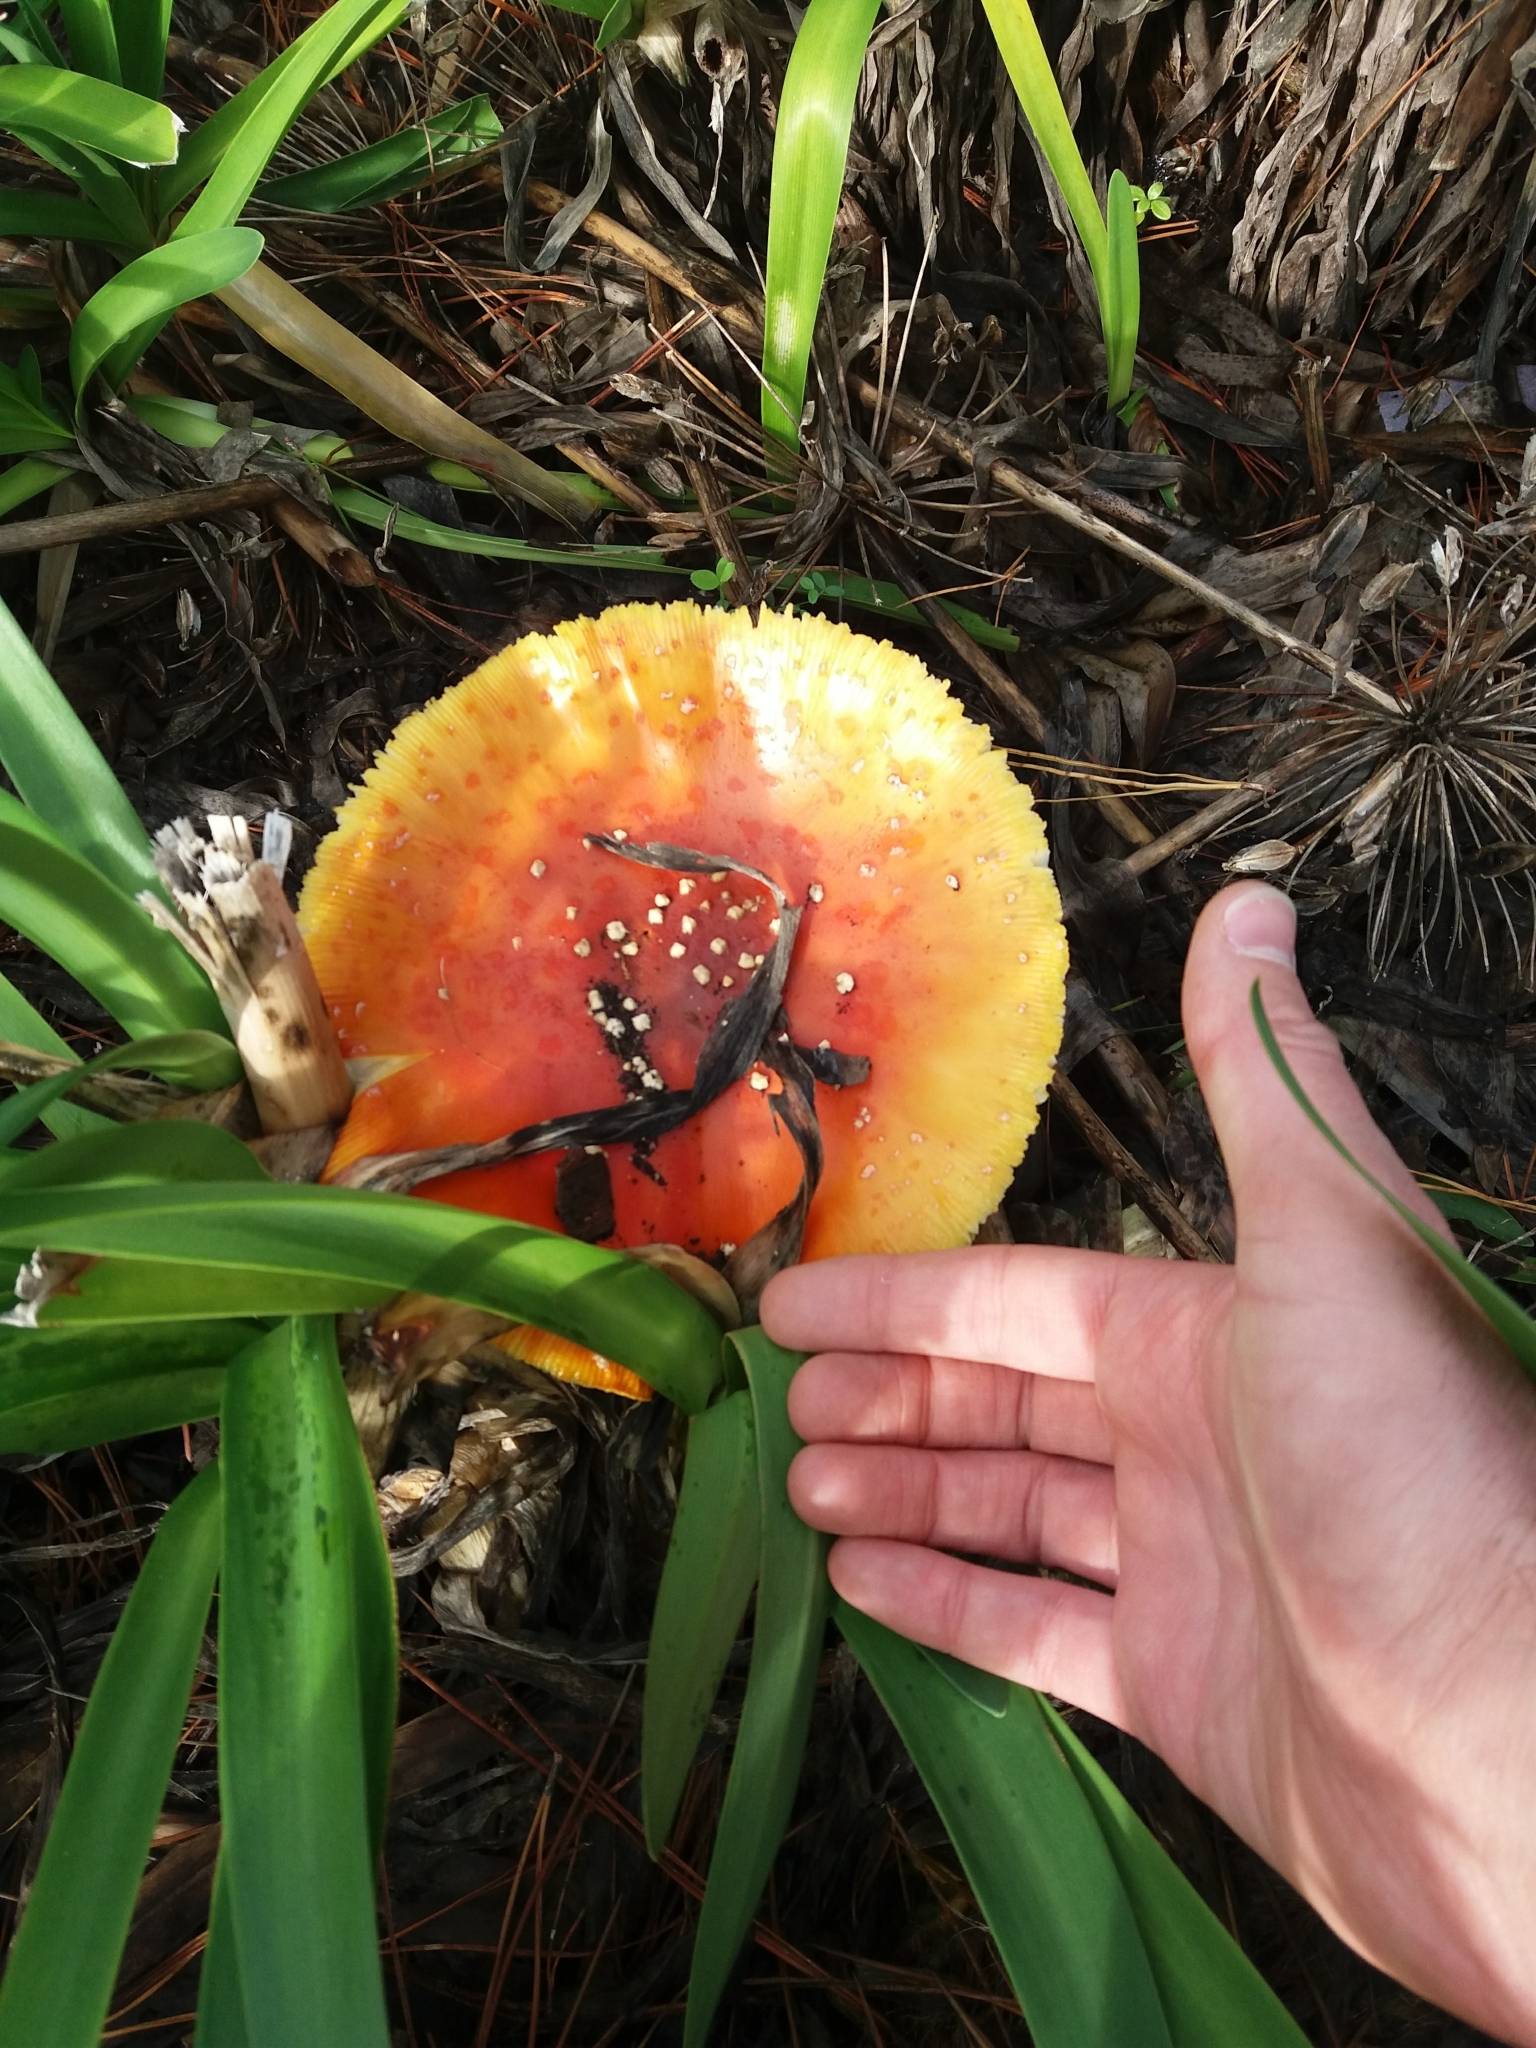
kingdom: Fungi
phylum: Basidiomycota
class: Agaricomycetes
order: Agaricales
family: Amanitaceae
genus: Amanita
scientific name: Amanita muscaria
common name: Fly agaric
